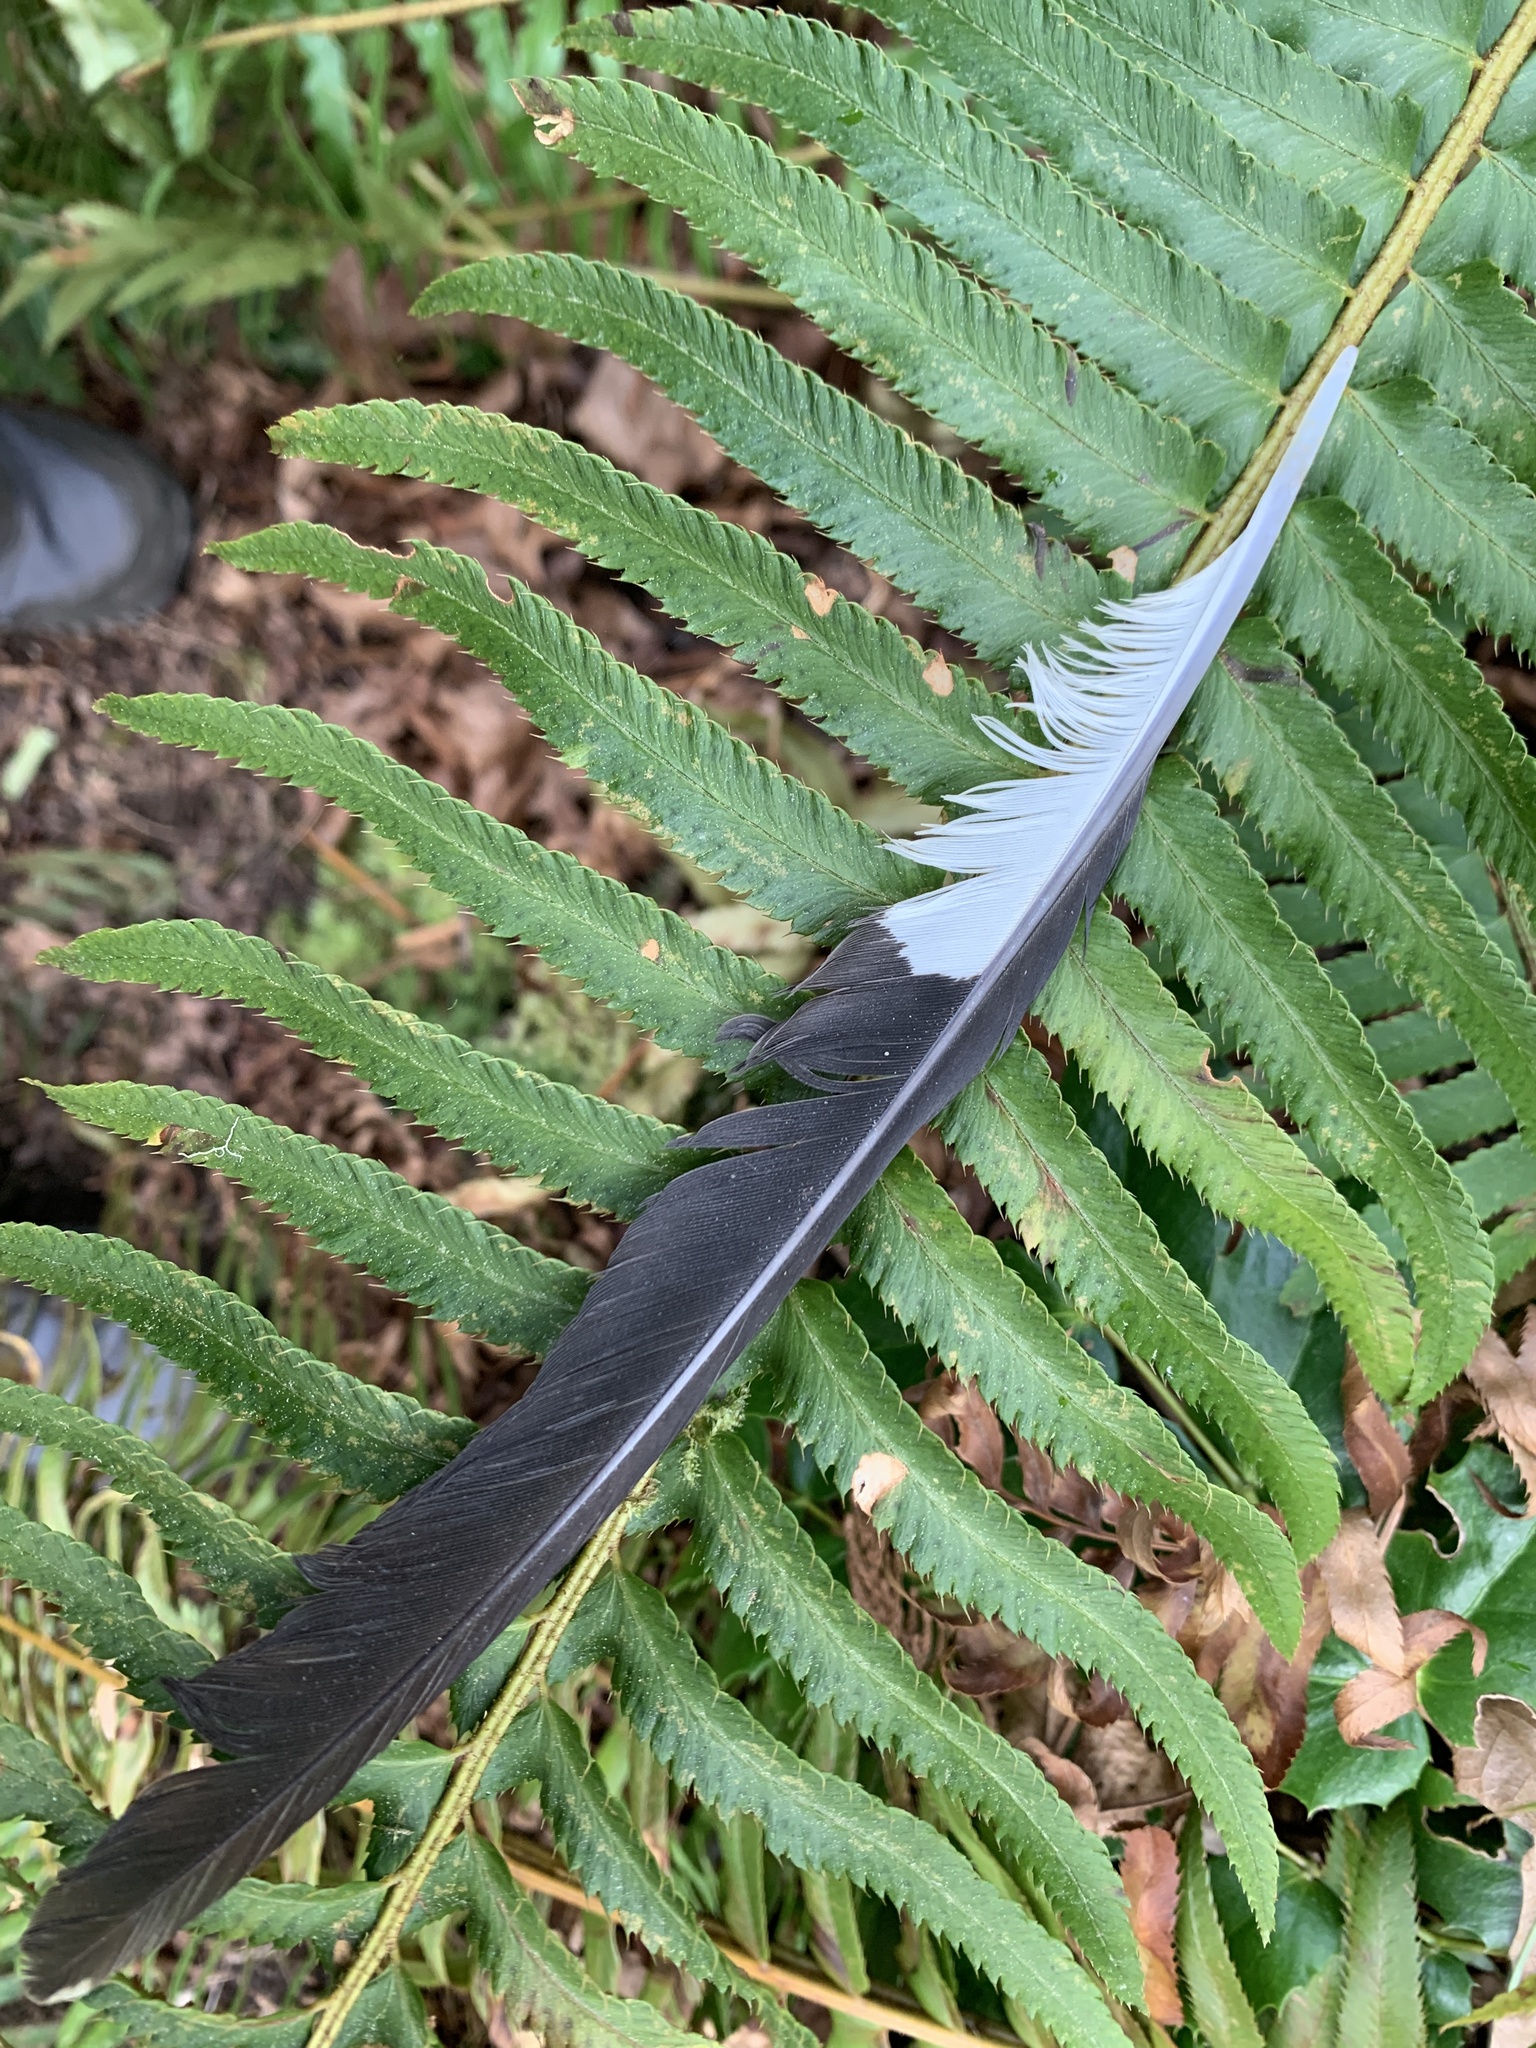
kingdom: Animalia
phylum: Chordata
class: Aves
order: Piciformes
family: Picidae
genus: Dryocopus
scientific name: Dryocopus pileatus
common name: Pileated woodpecker
